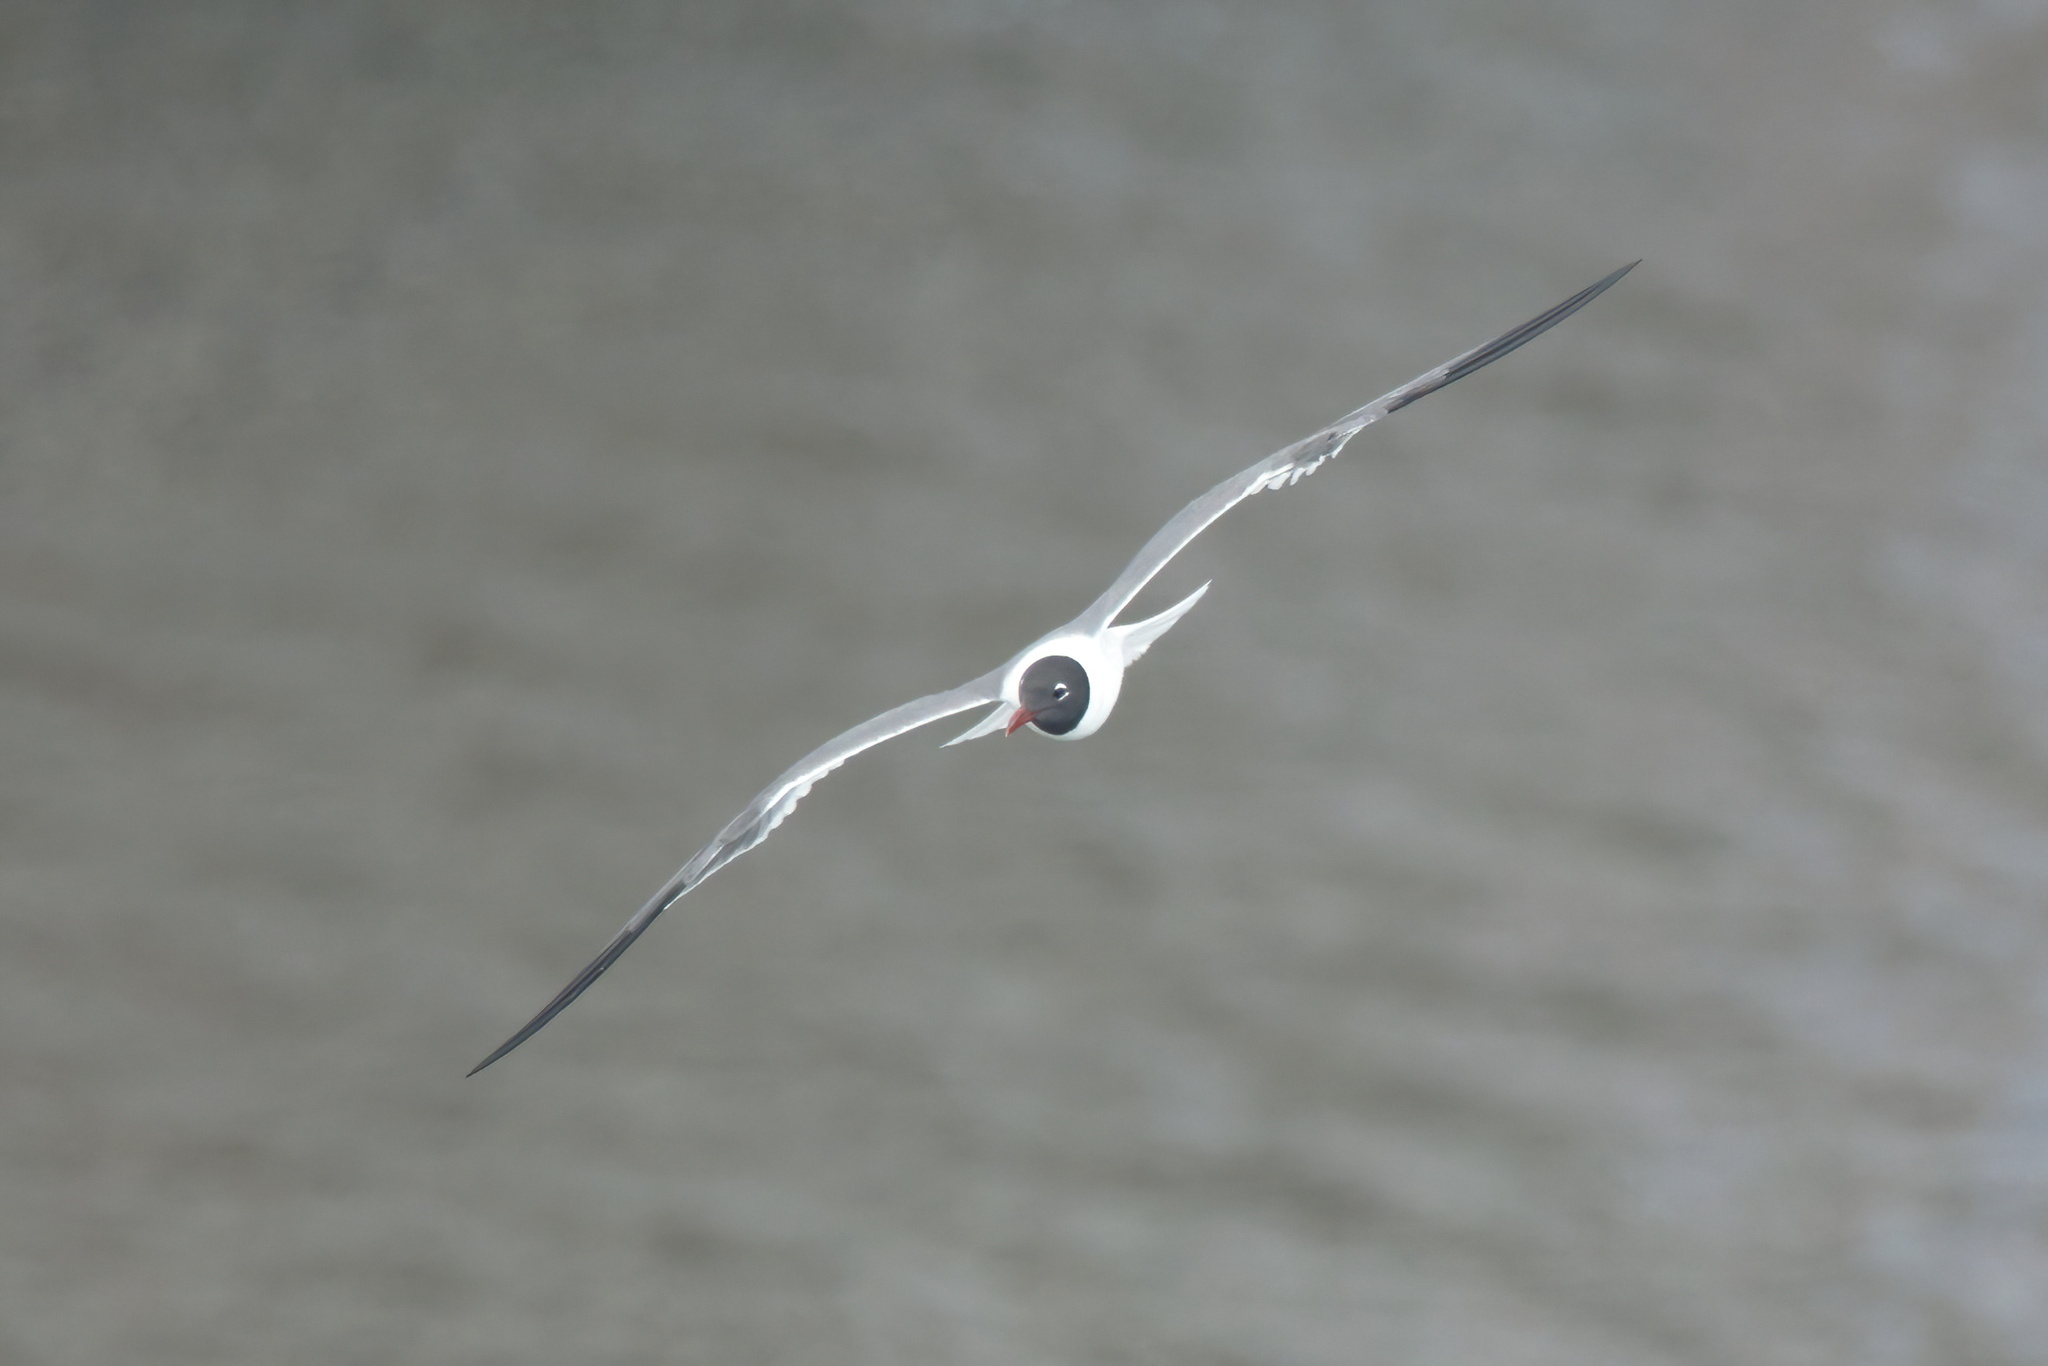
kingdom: Animalia
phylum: Chordata
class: Aves
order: Charadriiformes
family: Laridae
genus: Leucophaeus
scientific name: Leucophaeus atricilla
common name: Laughing gull
